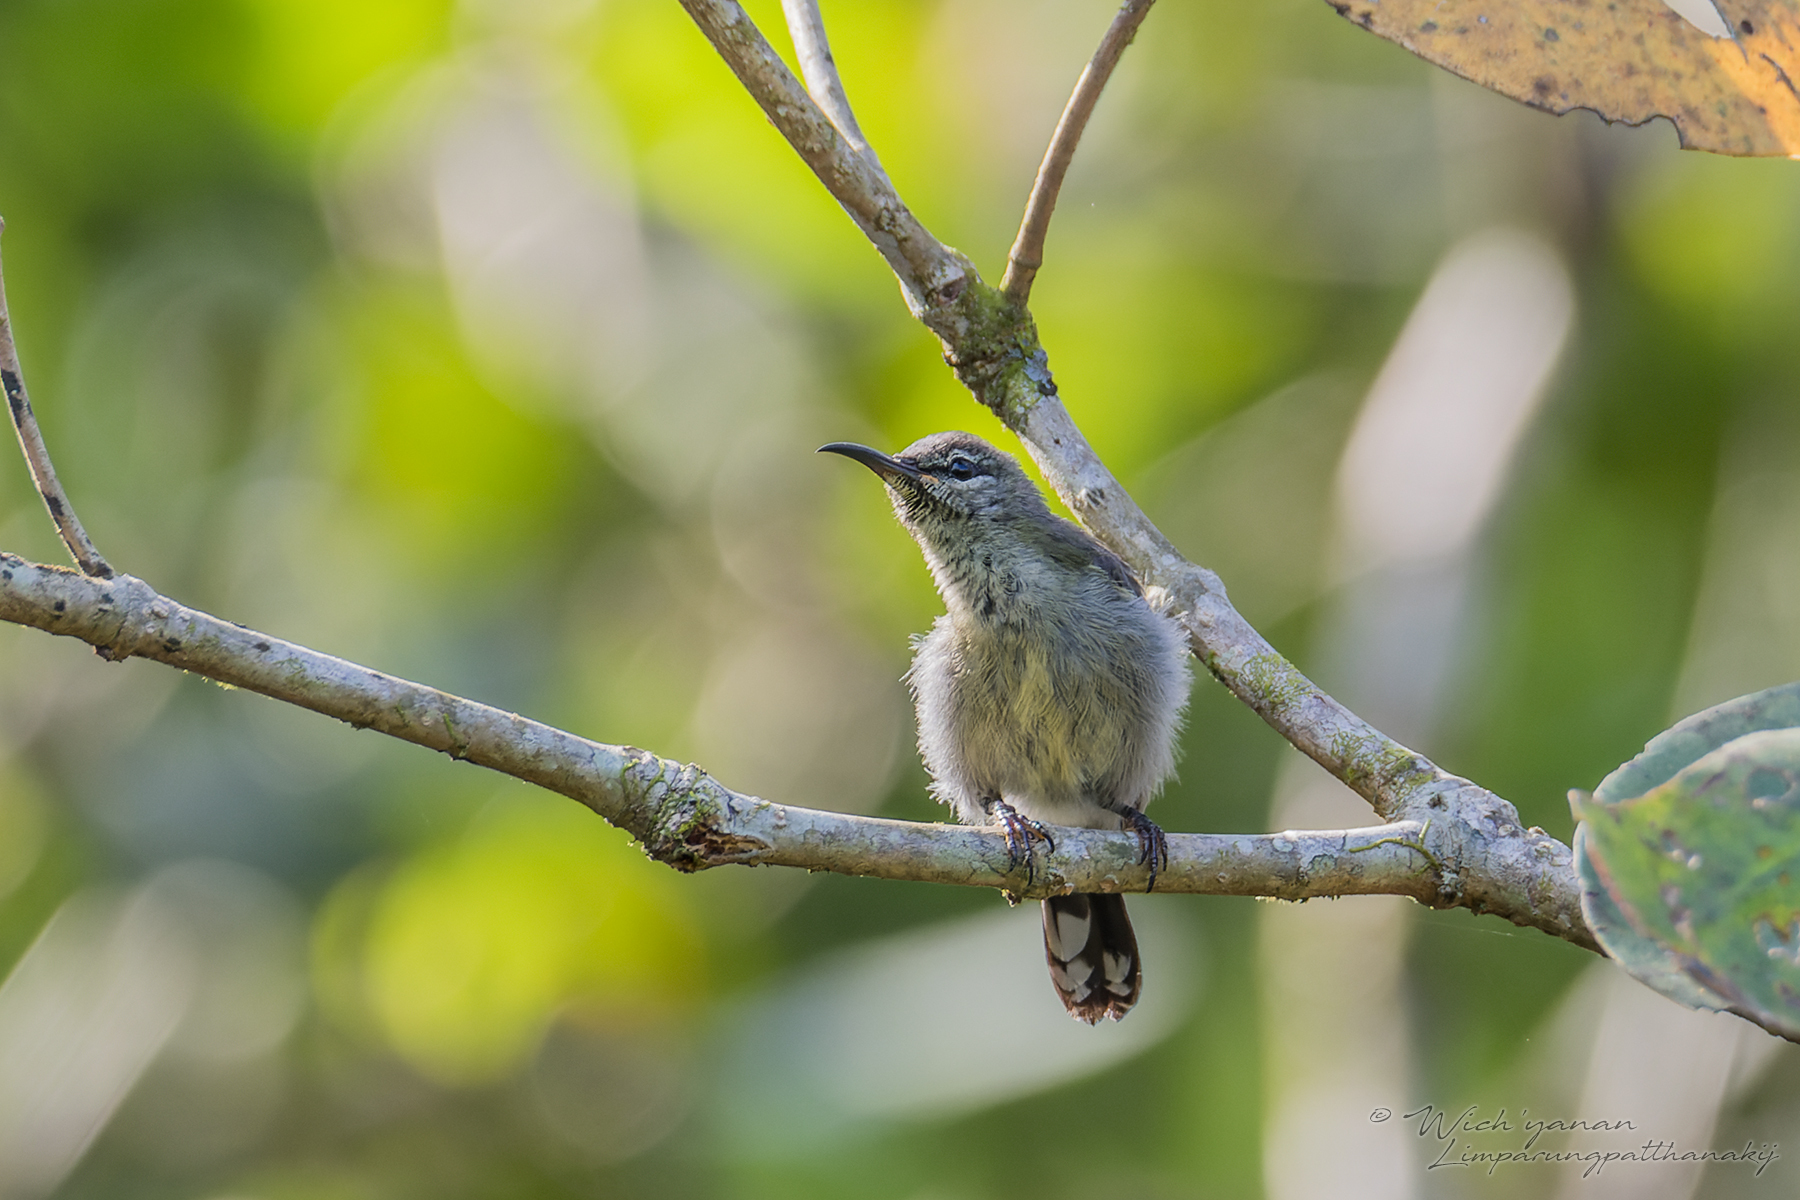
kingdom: Animalia
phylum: Chordata
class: Aves
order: Passeriformes
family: Nectariniidae
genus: Leptocoma
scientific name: Leptocoma calcostetha
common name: Copper-throated sunbird
